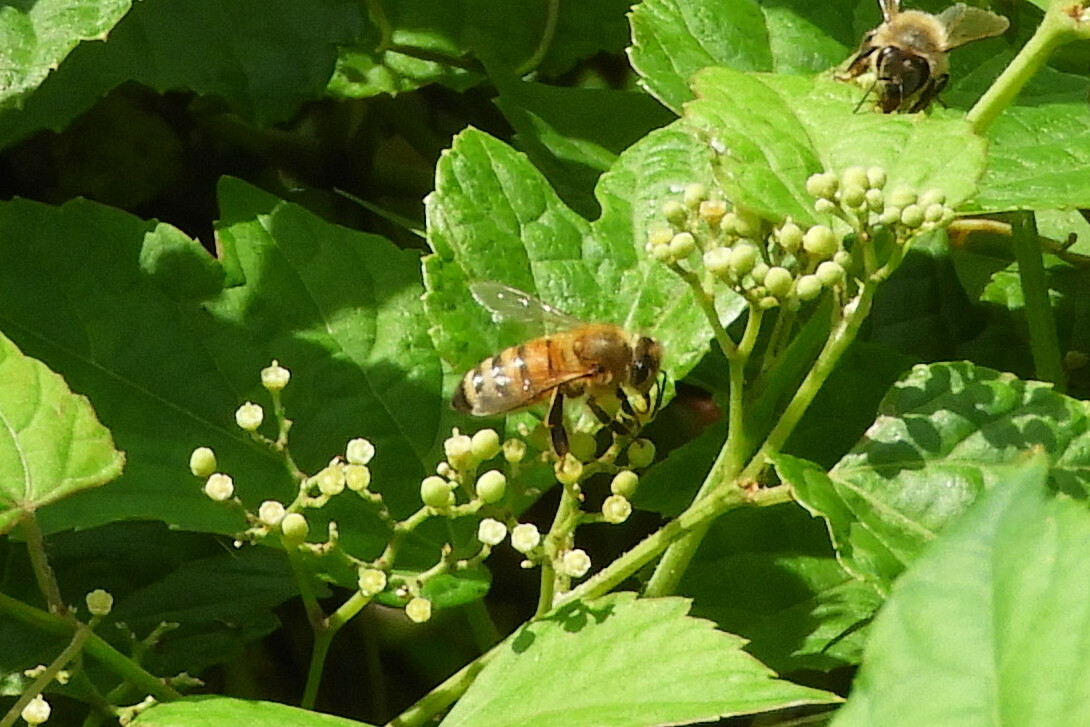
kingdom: Animalia
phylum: Arthropoda
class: Insecta
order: Hymenoptera
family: Apidae
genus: Apis
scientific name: Apis mellifera
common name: Honey bee
